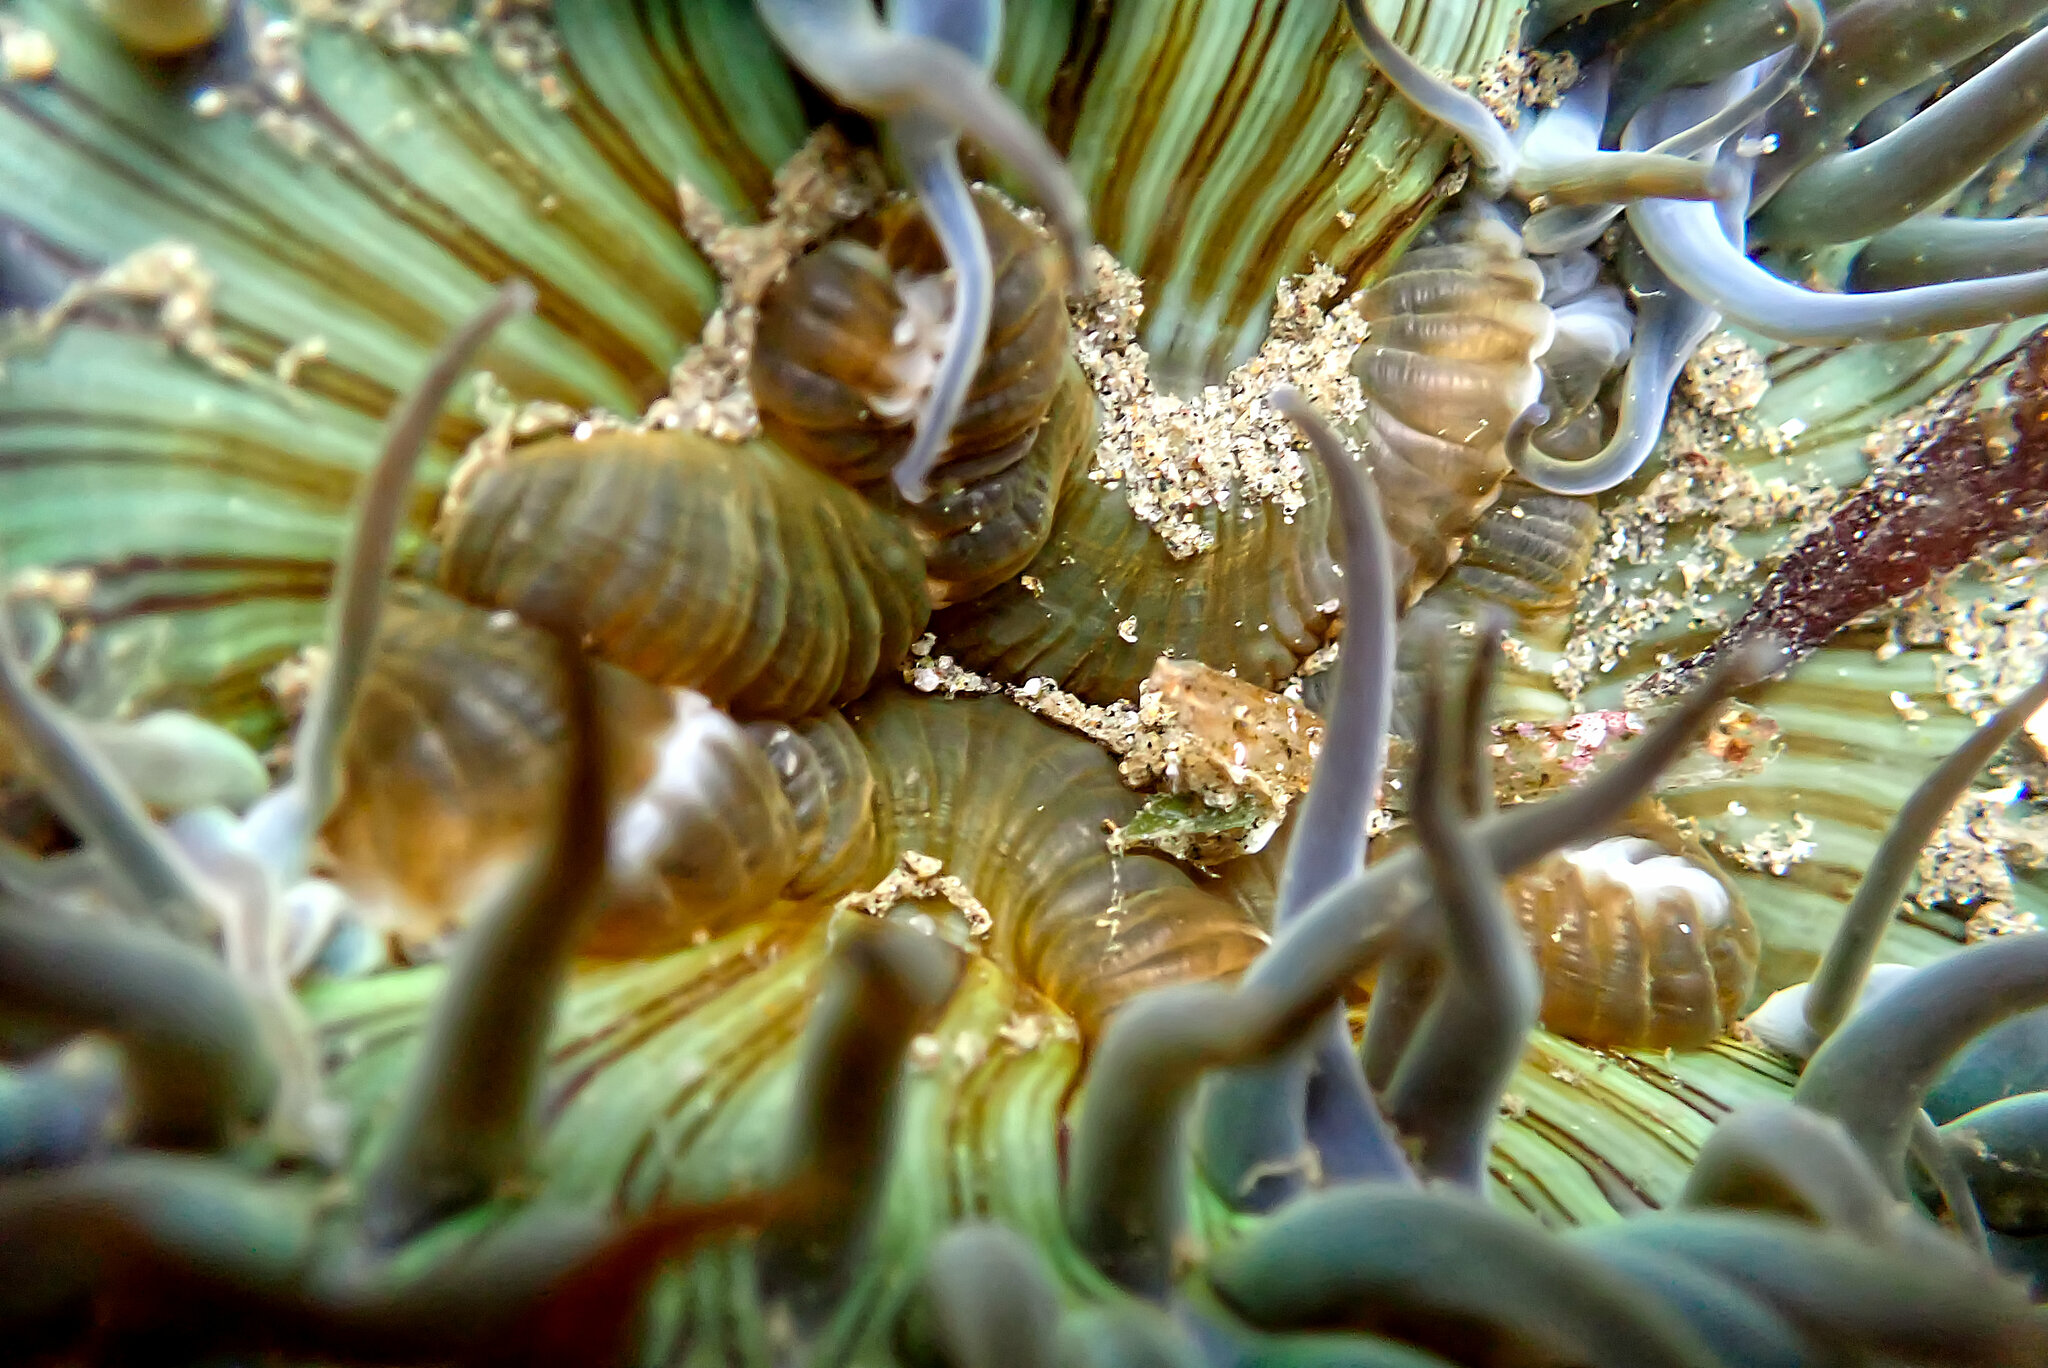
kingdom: Animalia
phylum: Cnidaria
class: Anthozoa
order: Actiniaria
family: Actiniidae
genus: Anthopleura
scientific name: Anthopleura sola
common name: Sun anemone
